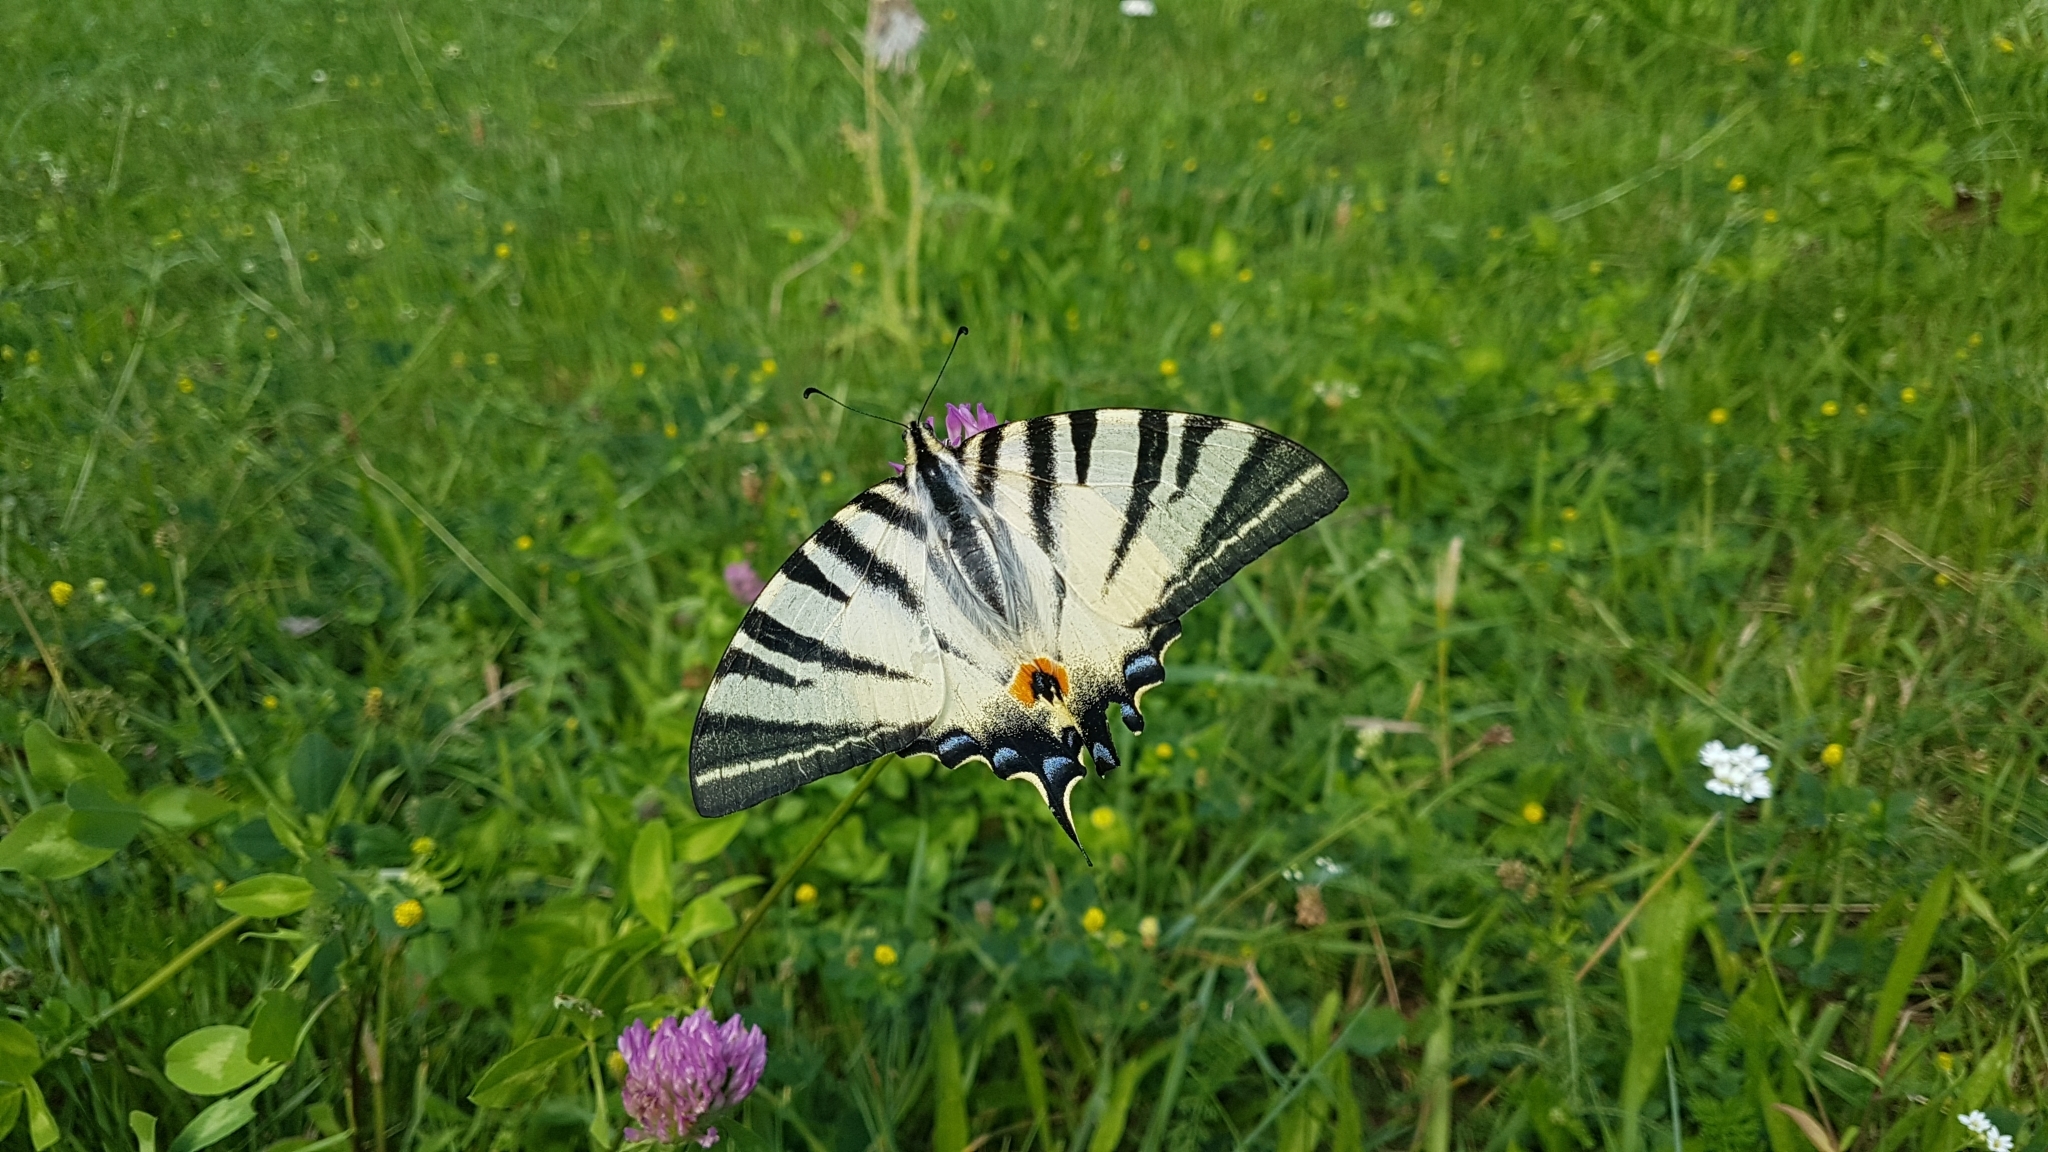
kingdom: Animalia
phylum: Arthropoda
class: Insecta
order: Lepidoptera
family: Papilionidae
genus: Iphiclides
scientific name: Iphiclides podalirius
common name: Scarce swallowtail
